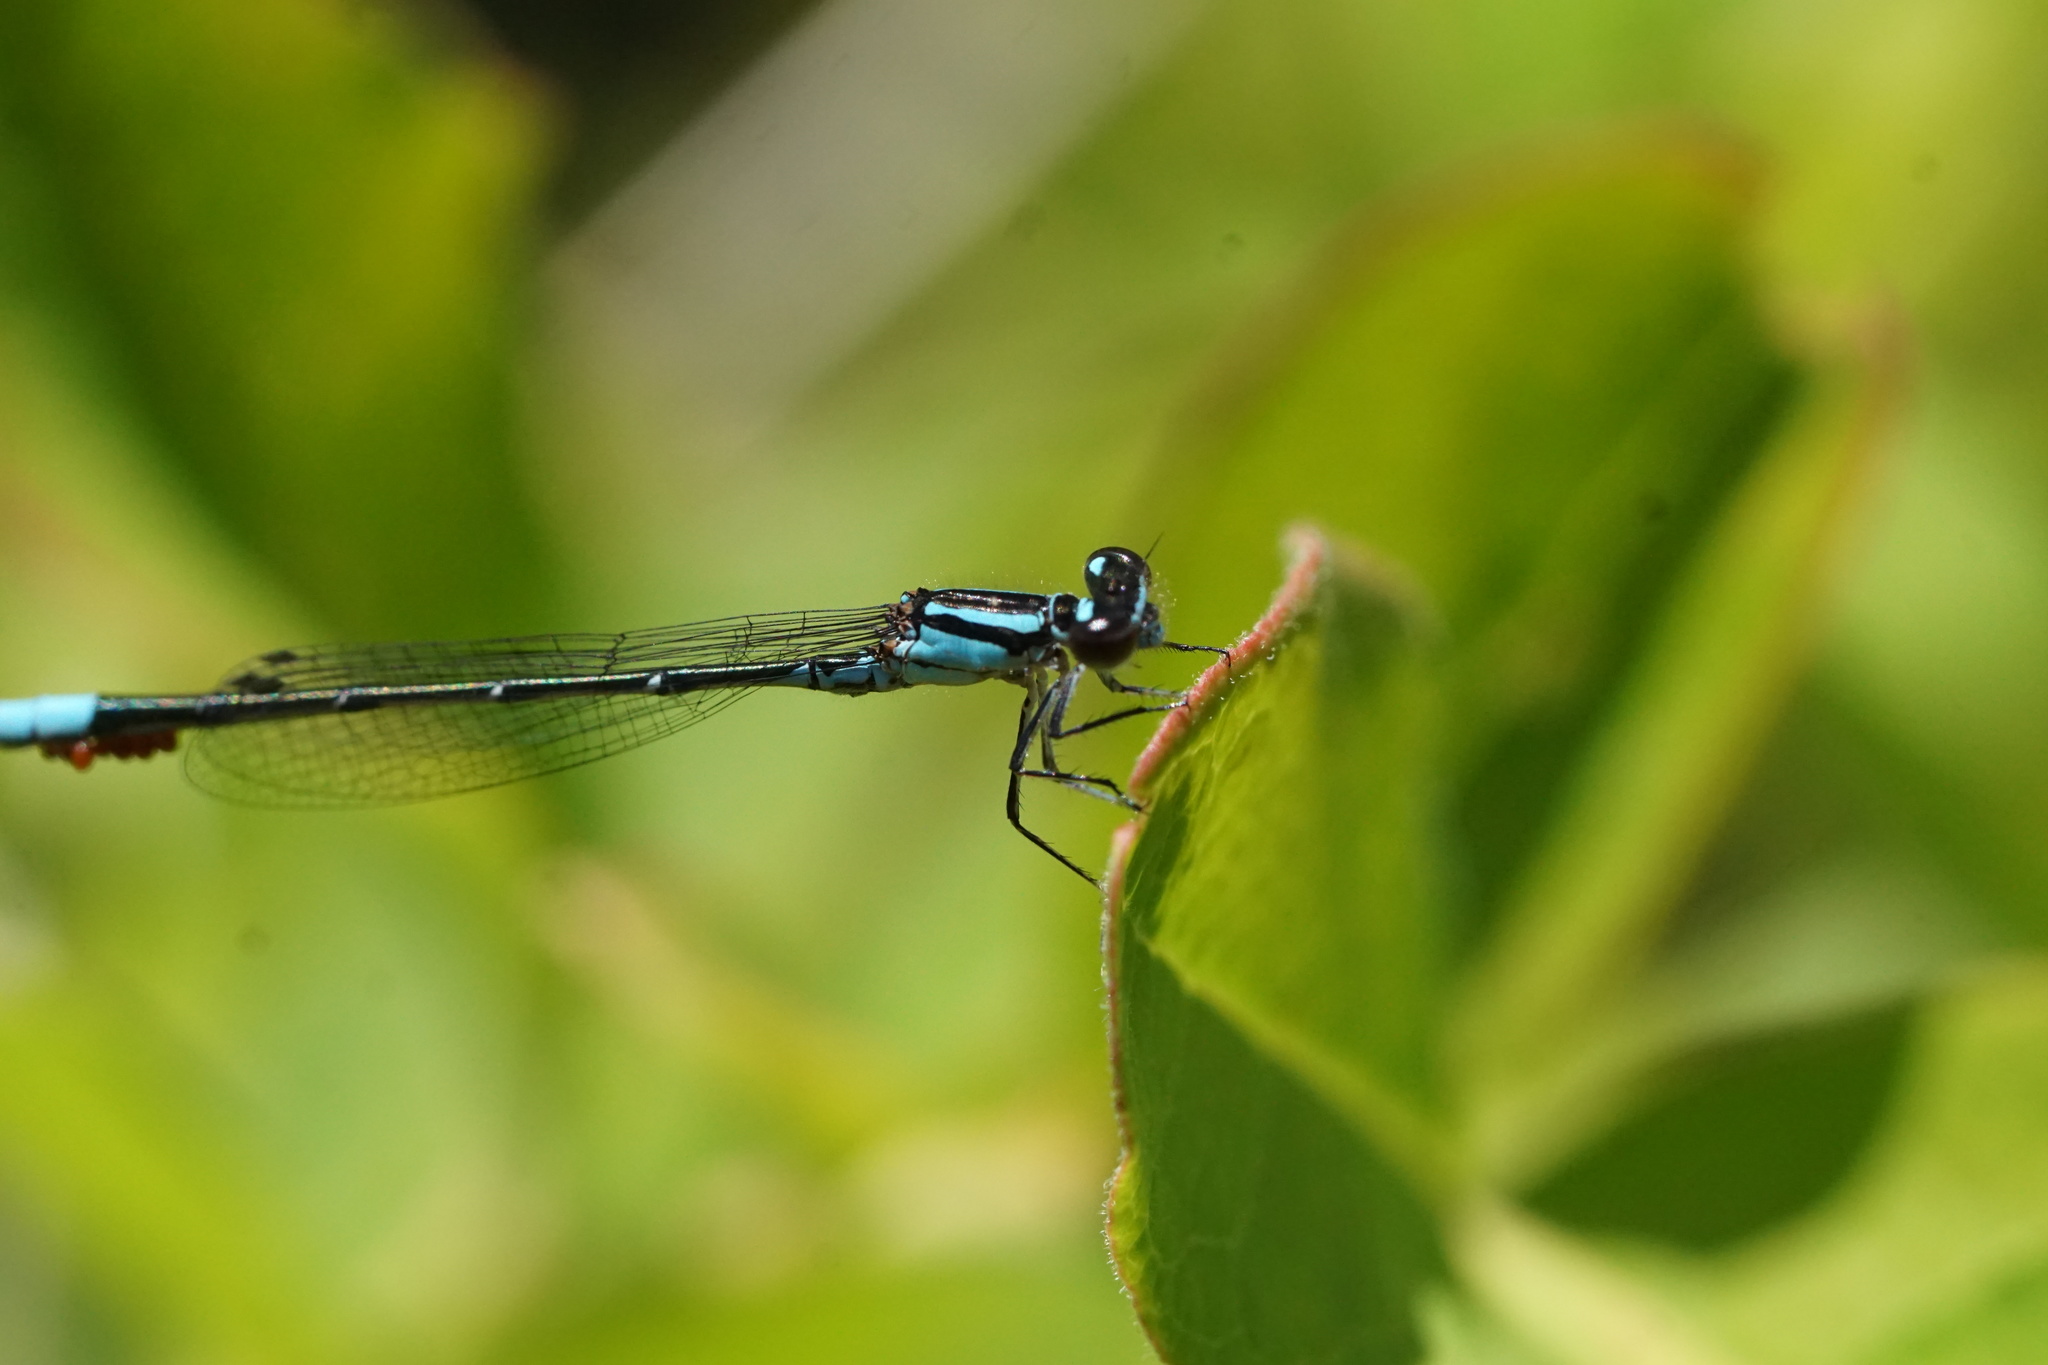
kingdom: Animalia
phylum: Arthropoda
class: Insecta
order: Odonata
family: Coenagrionidae
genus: Enallagma
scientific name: Enallagma geminatum
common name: Skimming bluet
